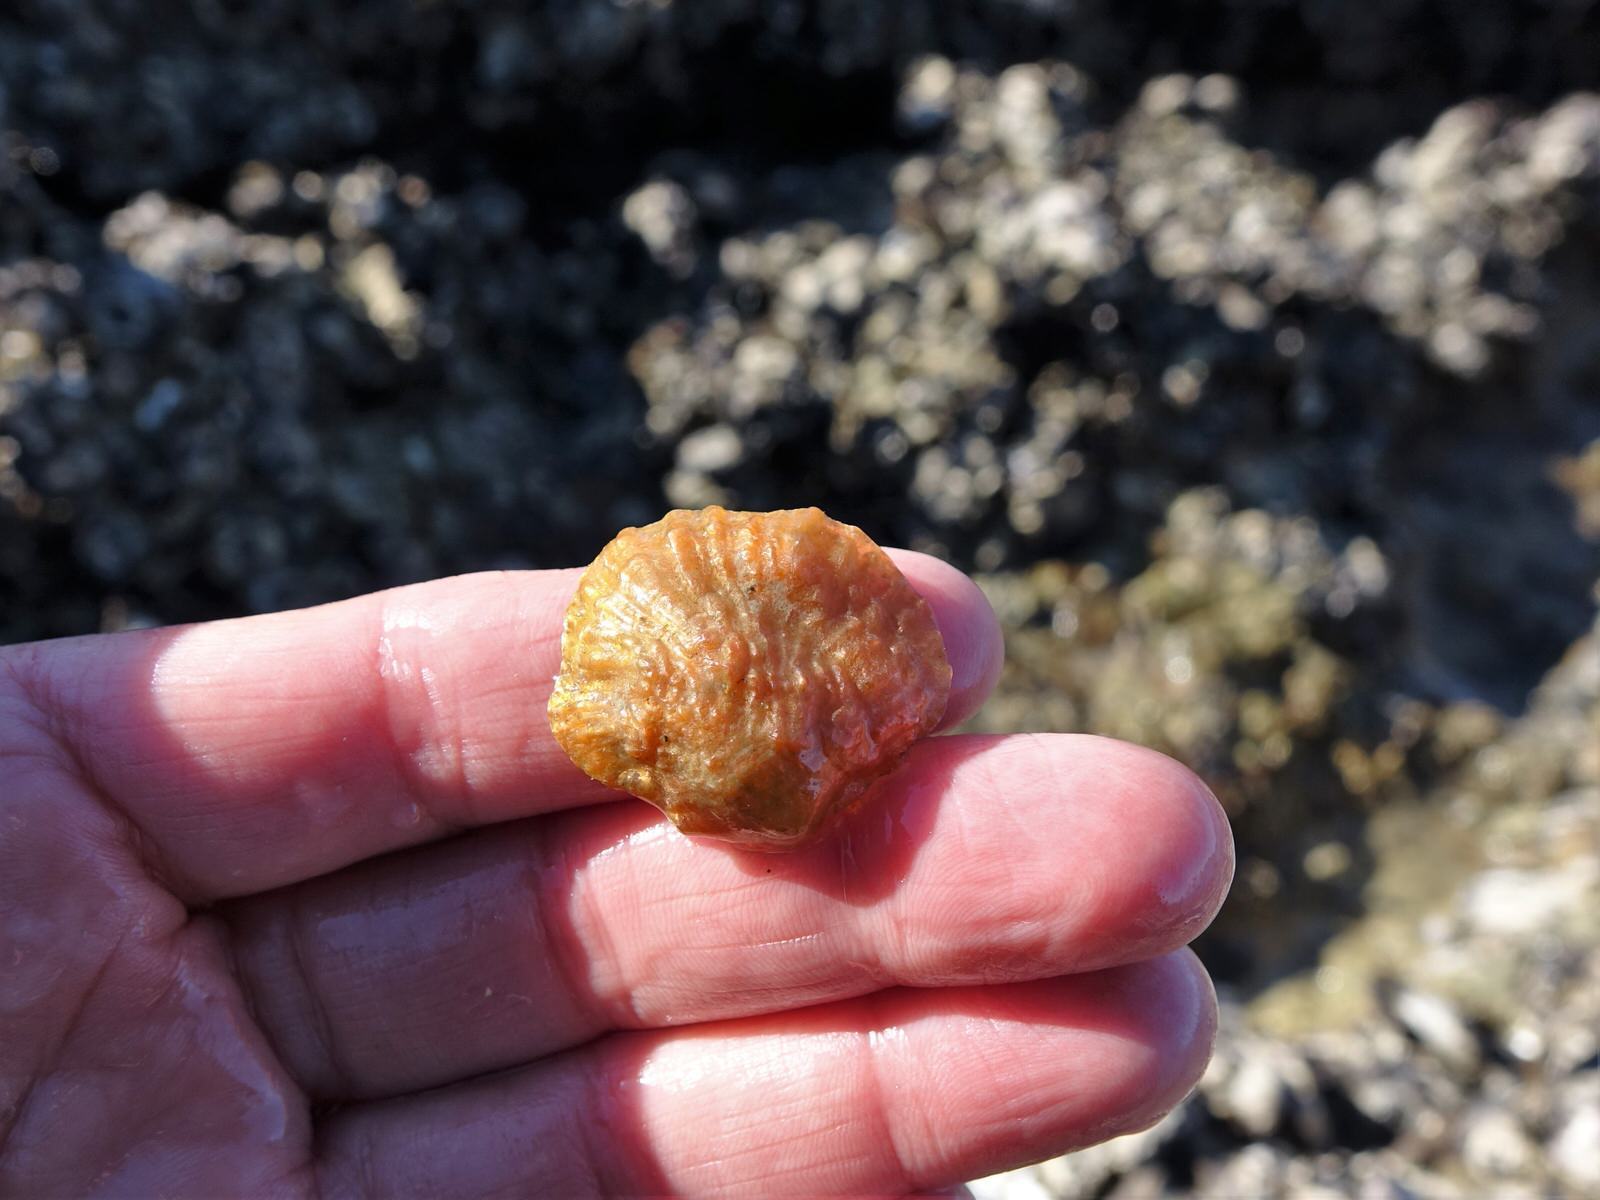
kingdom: Animalia
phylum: Mollusca
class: Bivalvia
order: Pectinida
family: Anomiidae
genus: Anomia
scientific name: Anomia trigonopsis
